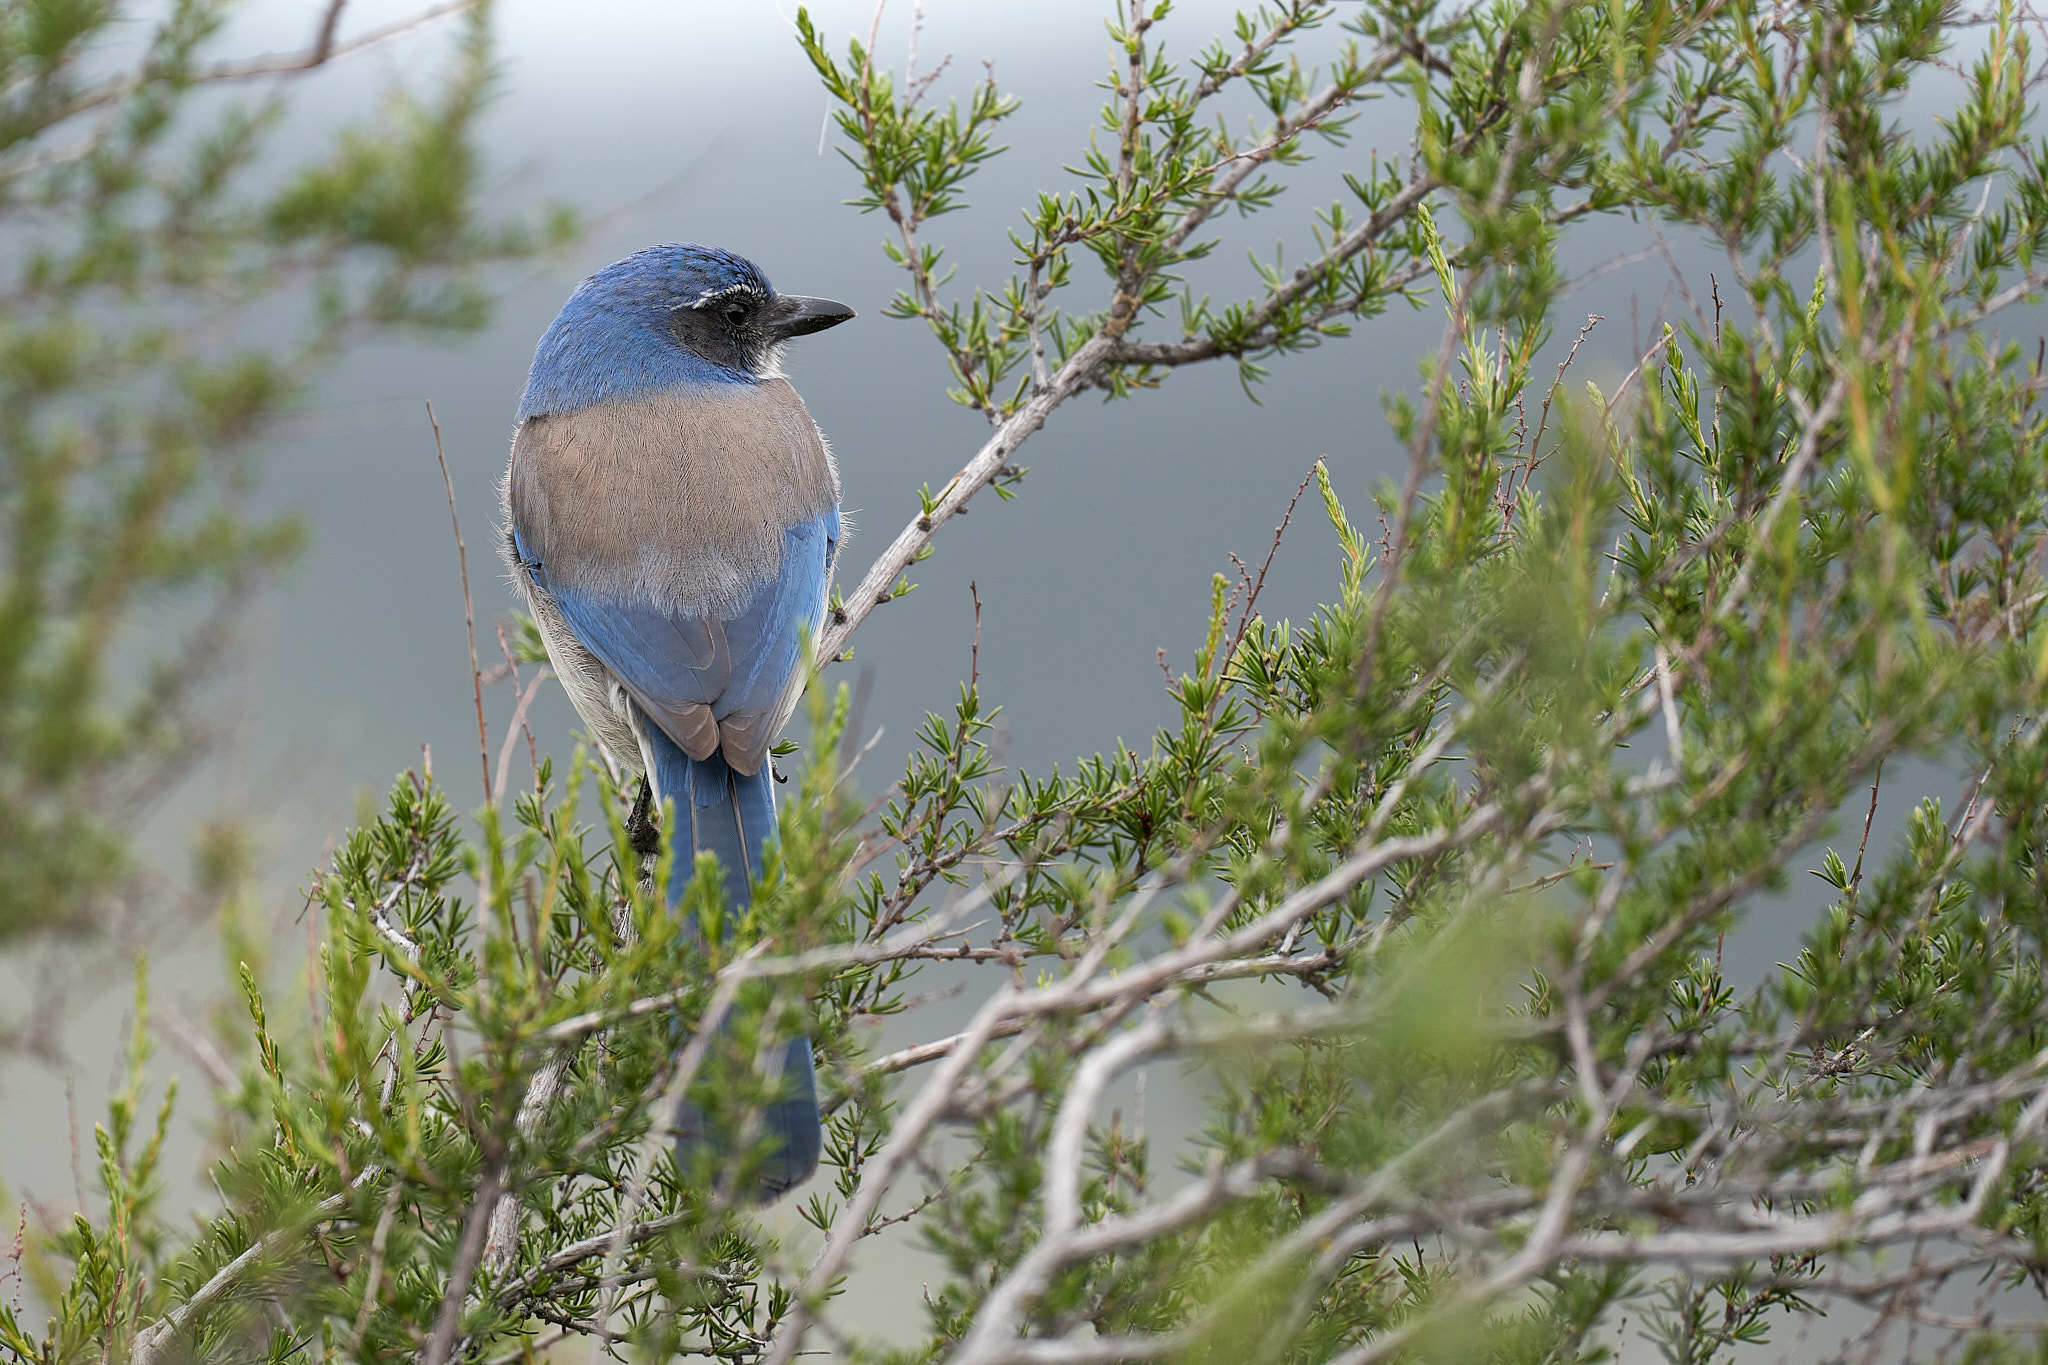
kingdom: Animalia
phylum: Chordata
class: Aves
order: Passeriformes
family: Corvidae
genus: Aphelocoma
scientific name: Aphelocoma californica
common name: California scrub-jay
